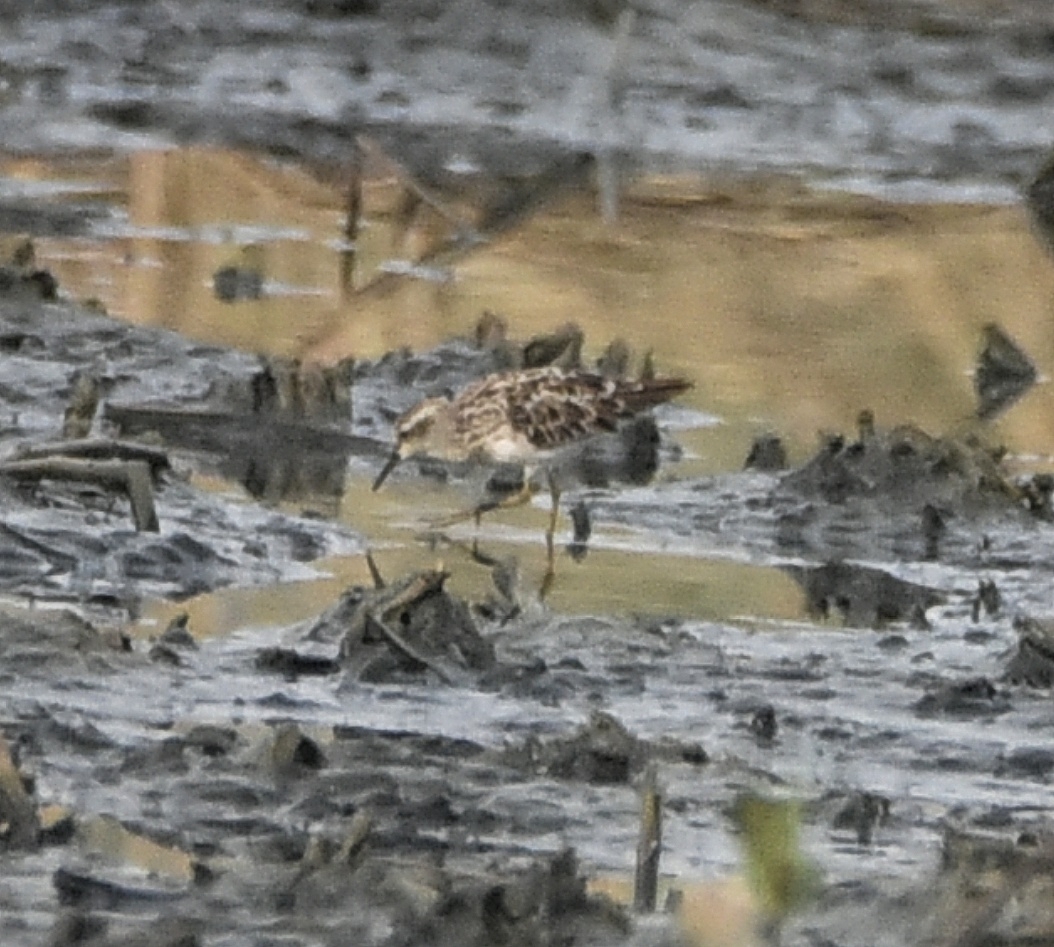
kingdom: Animalia
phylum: Chordata
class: Aves
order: Charadriiformes
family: Scolopacidae
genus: Calidris
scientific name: Calidris subminuta
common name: Long-toed stint
